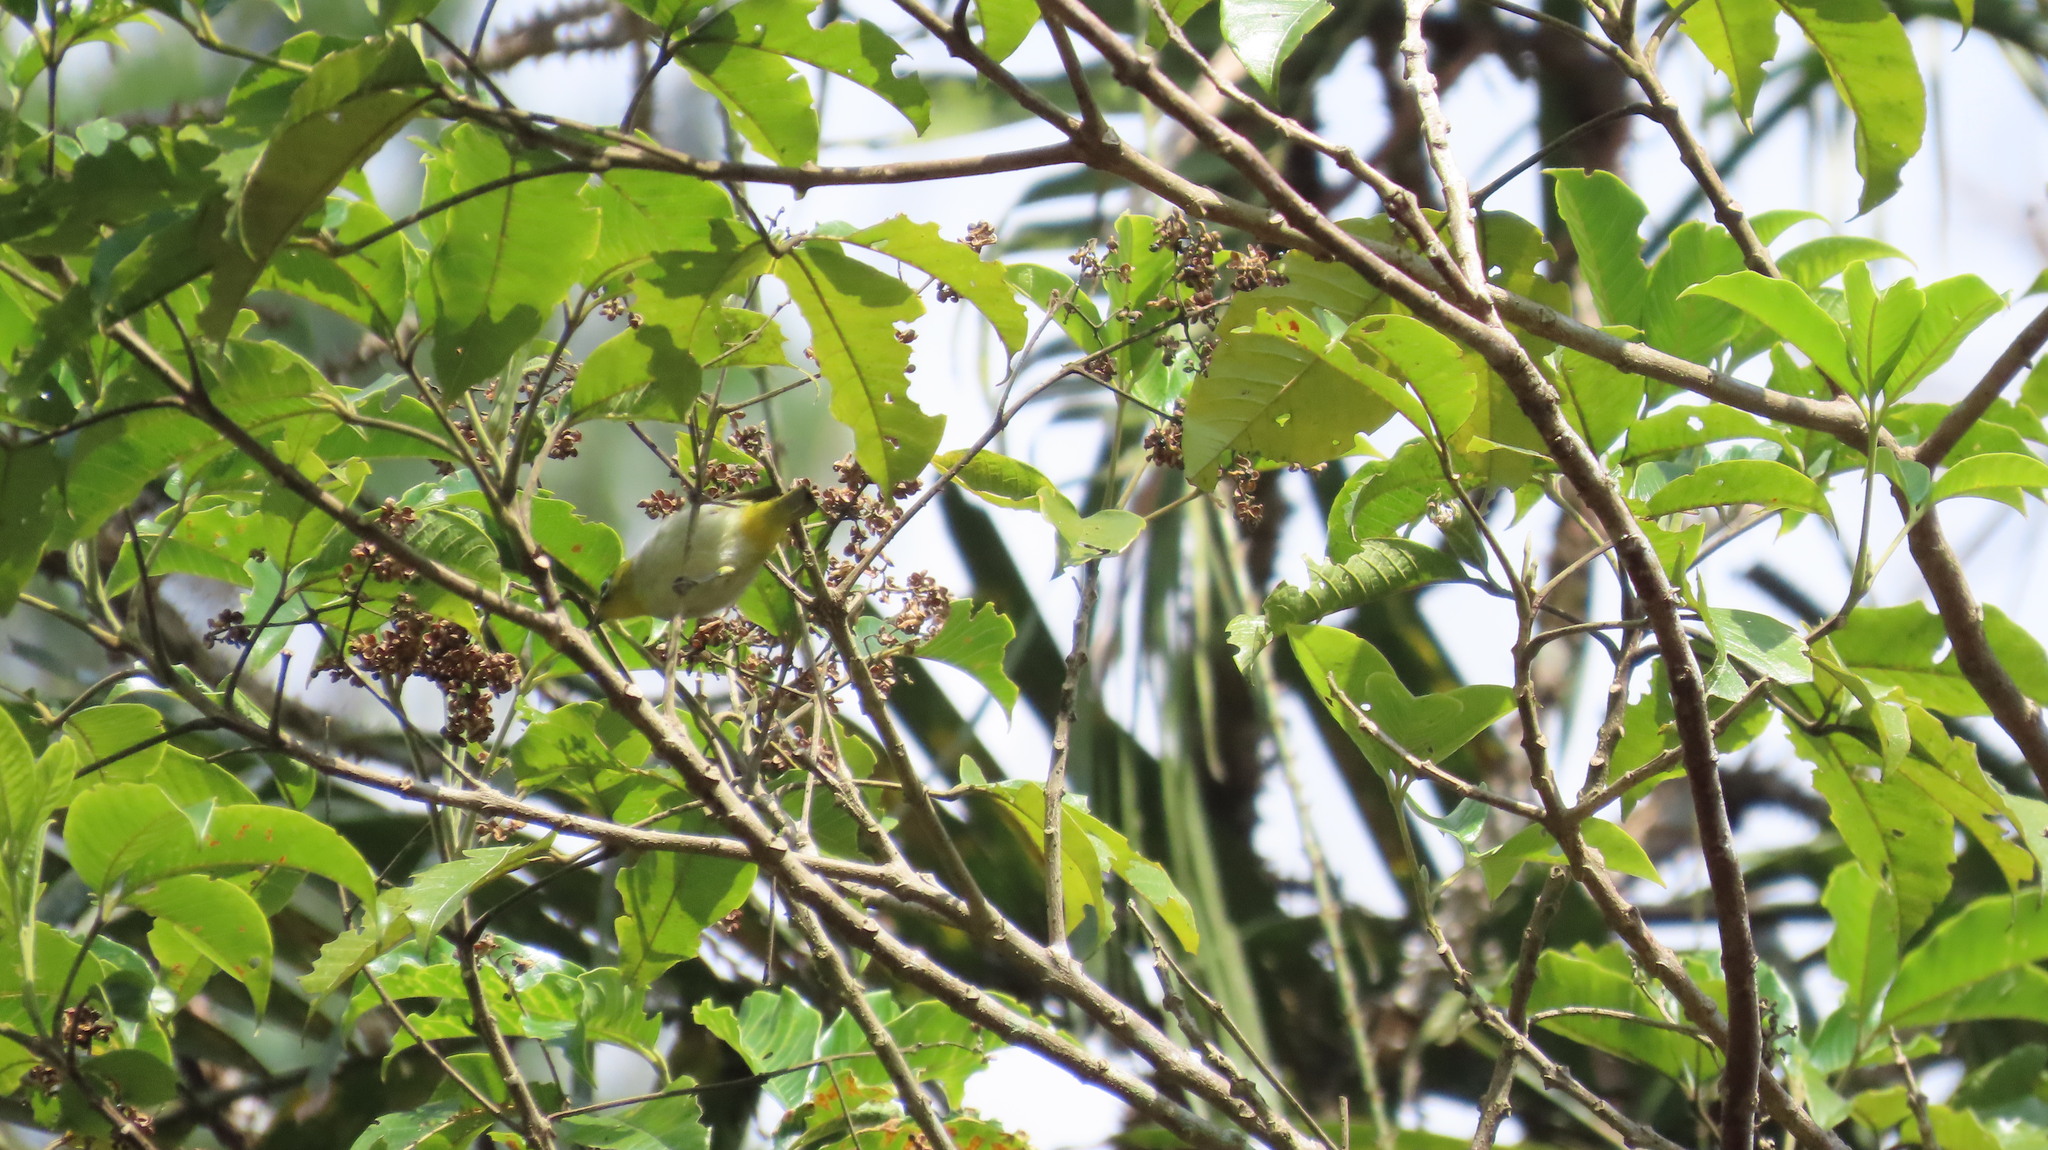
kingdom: Animalia
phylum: Chordata
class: Aves
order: Passeriformes
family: Zosteropidae
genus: Zosterops
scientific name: Zosterops palpebrosus
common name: Oriental white-eye
